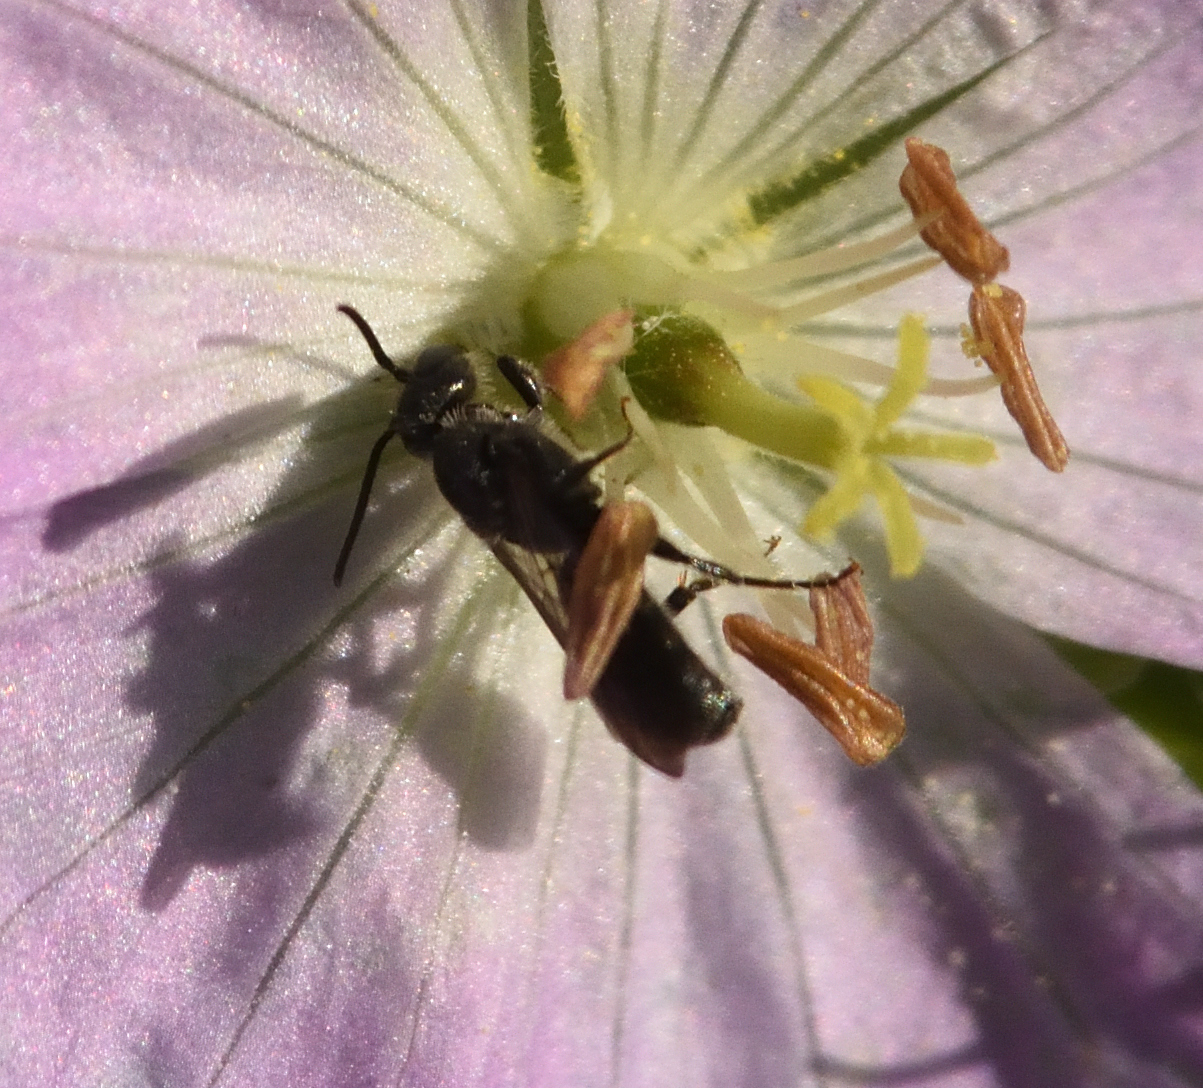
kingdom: Animalia
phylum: Arthropoda
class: Insecta
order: Hymenoptera
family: Megachilidae
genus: Chelostoma
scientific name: Chelostoma philadelphi
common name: Mock-orange scissor bee
